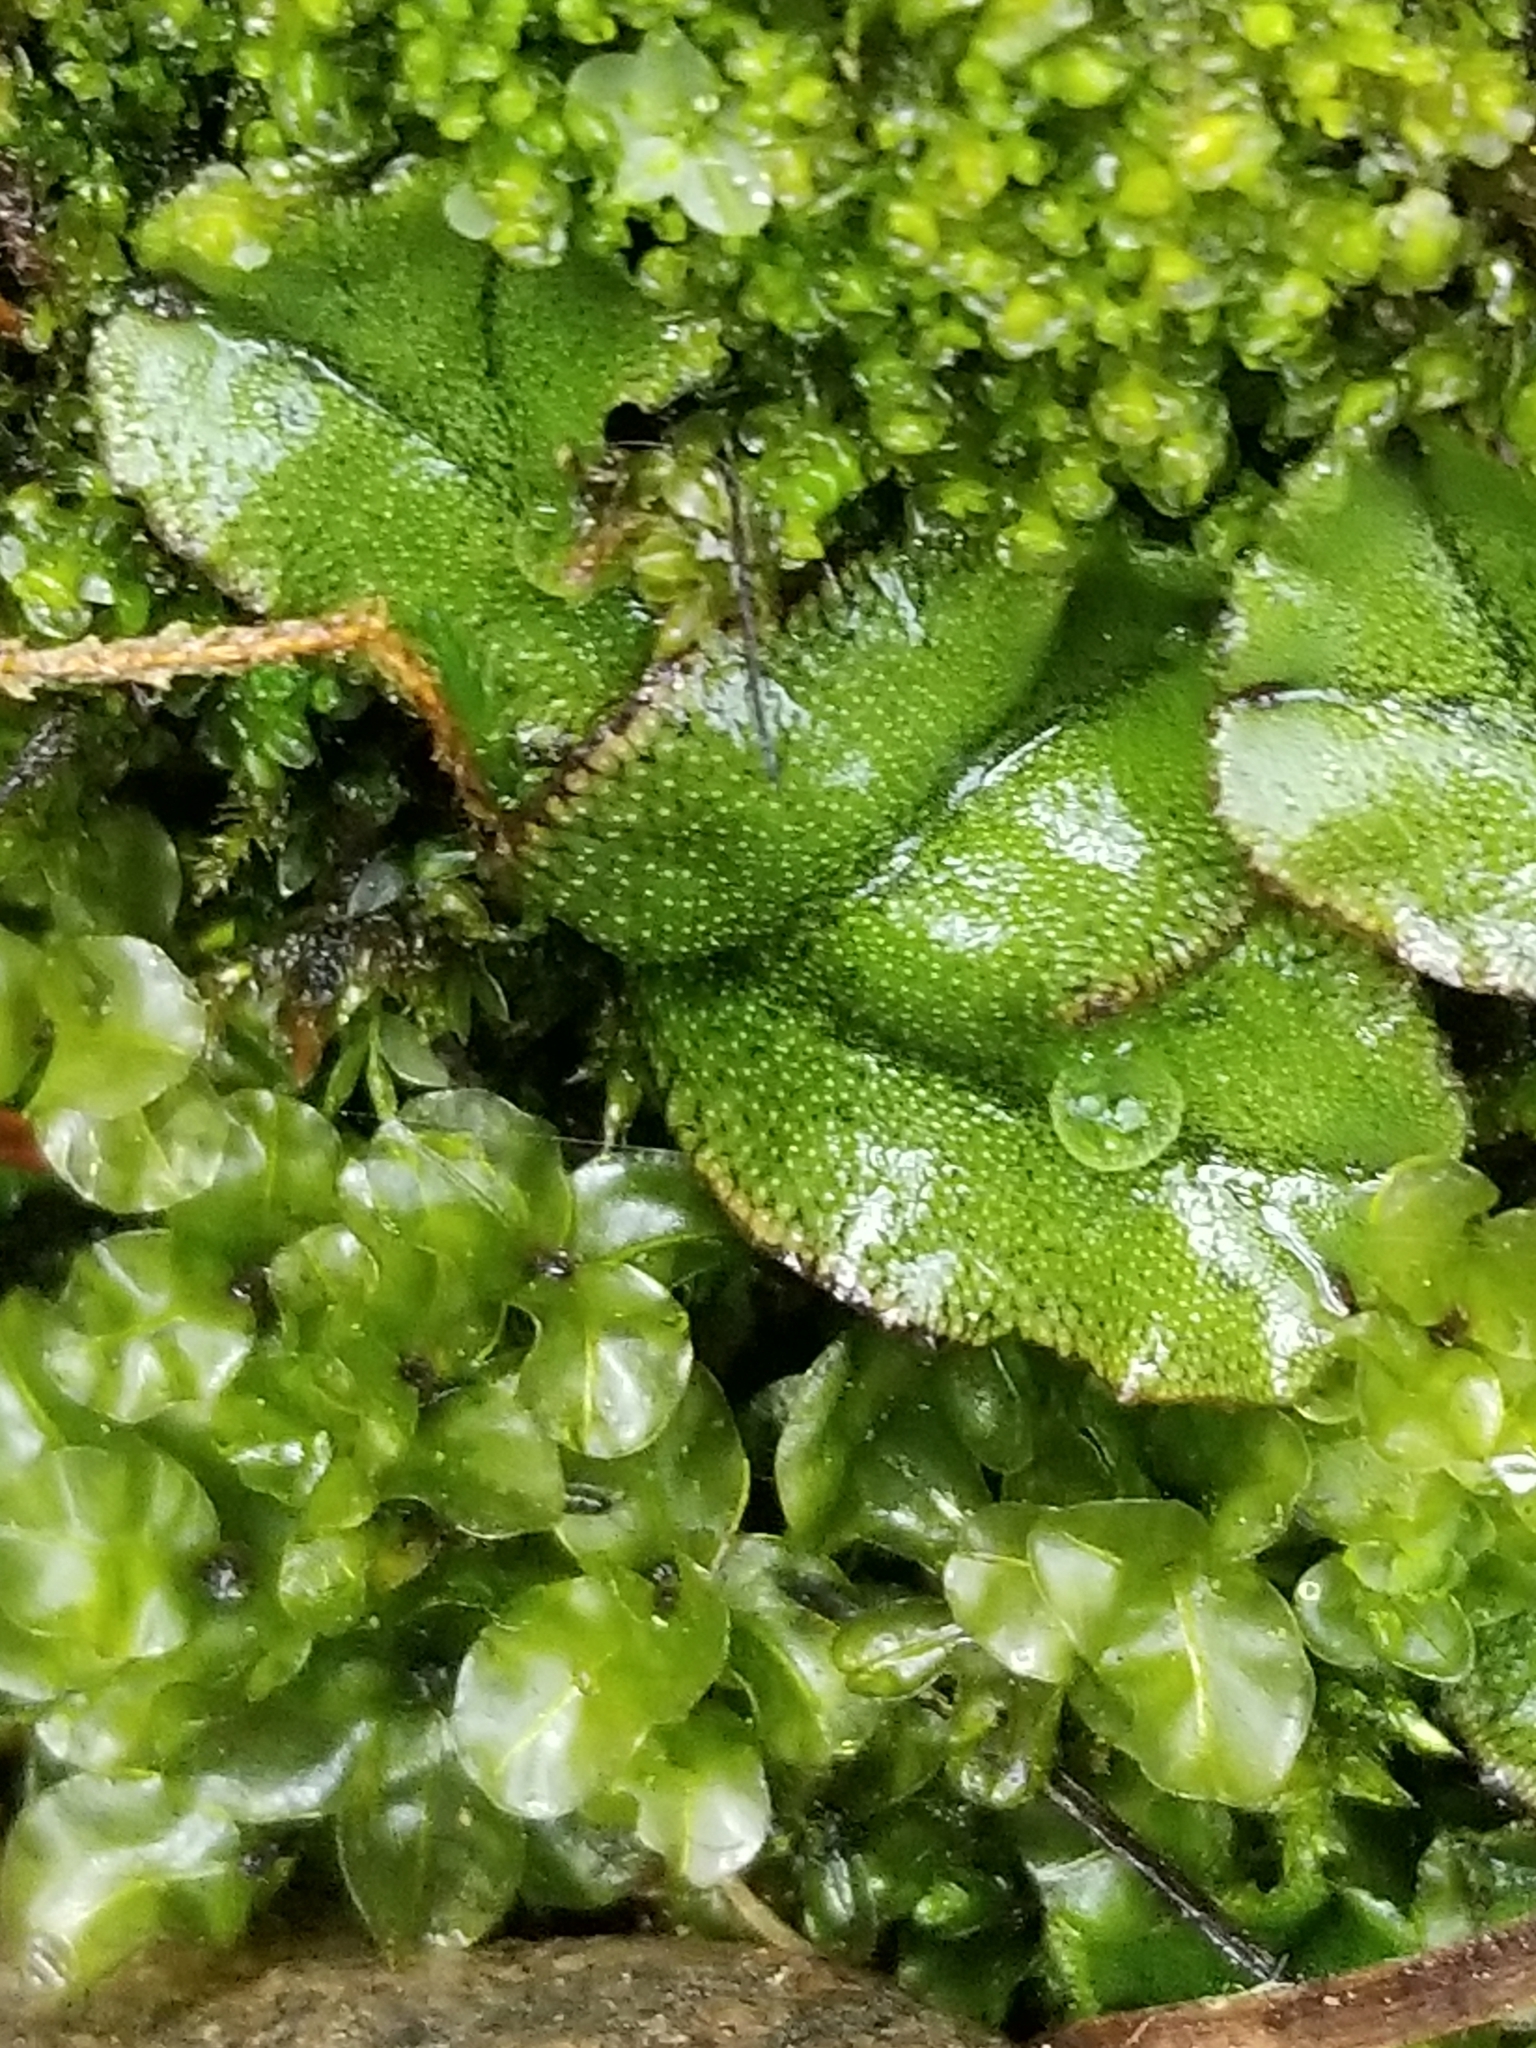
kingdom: Plantae
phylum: Marchantiophyta
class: Marchantiopsida
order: Marchantiales
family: Marchantiaceae
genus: Marchantia
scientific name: Marchantia polymorpha
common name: Common liverwort
